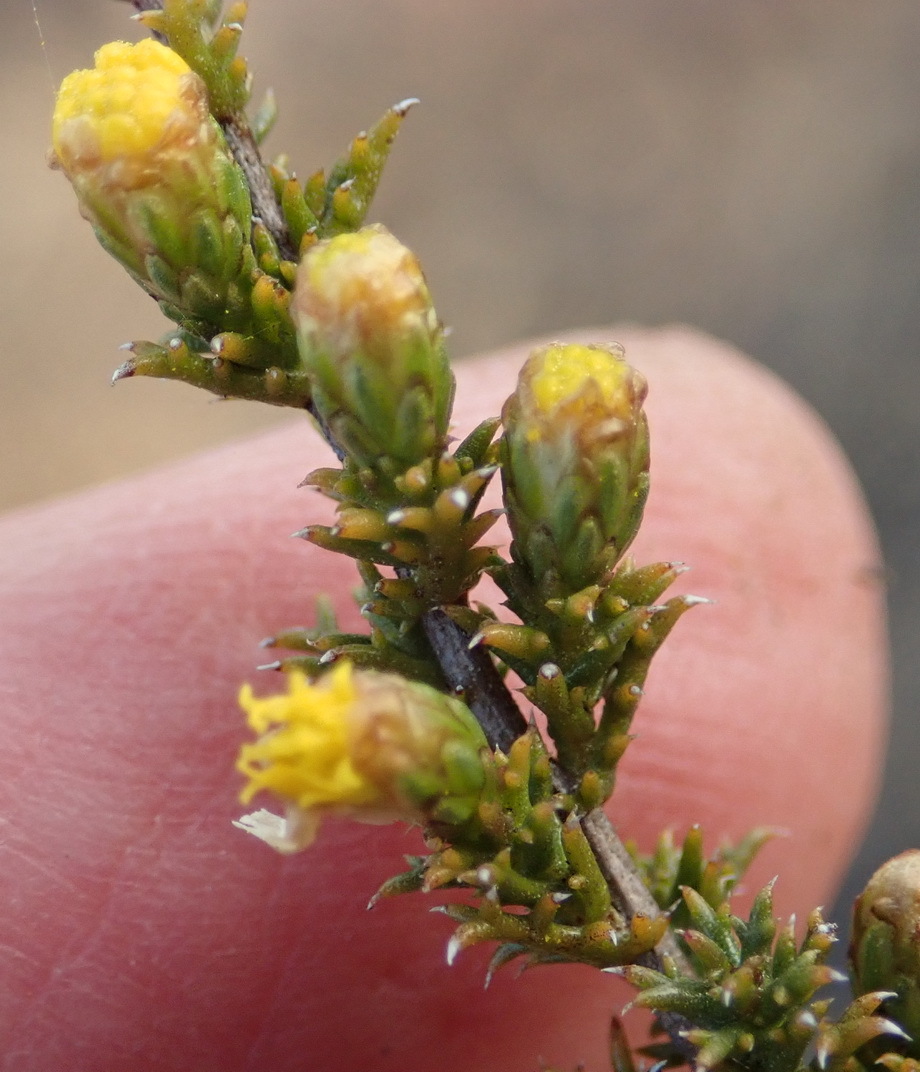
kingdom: Plantae
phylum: Tracheophyta
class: Magnoliopsida
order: Asterales
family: Asteraceae
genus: Marasmodes
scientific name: Marasmodes spinosa
